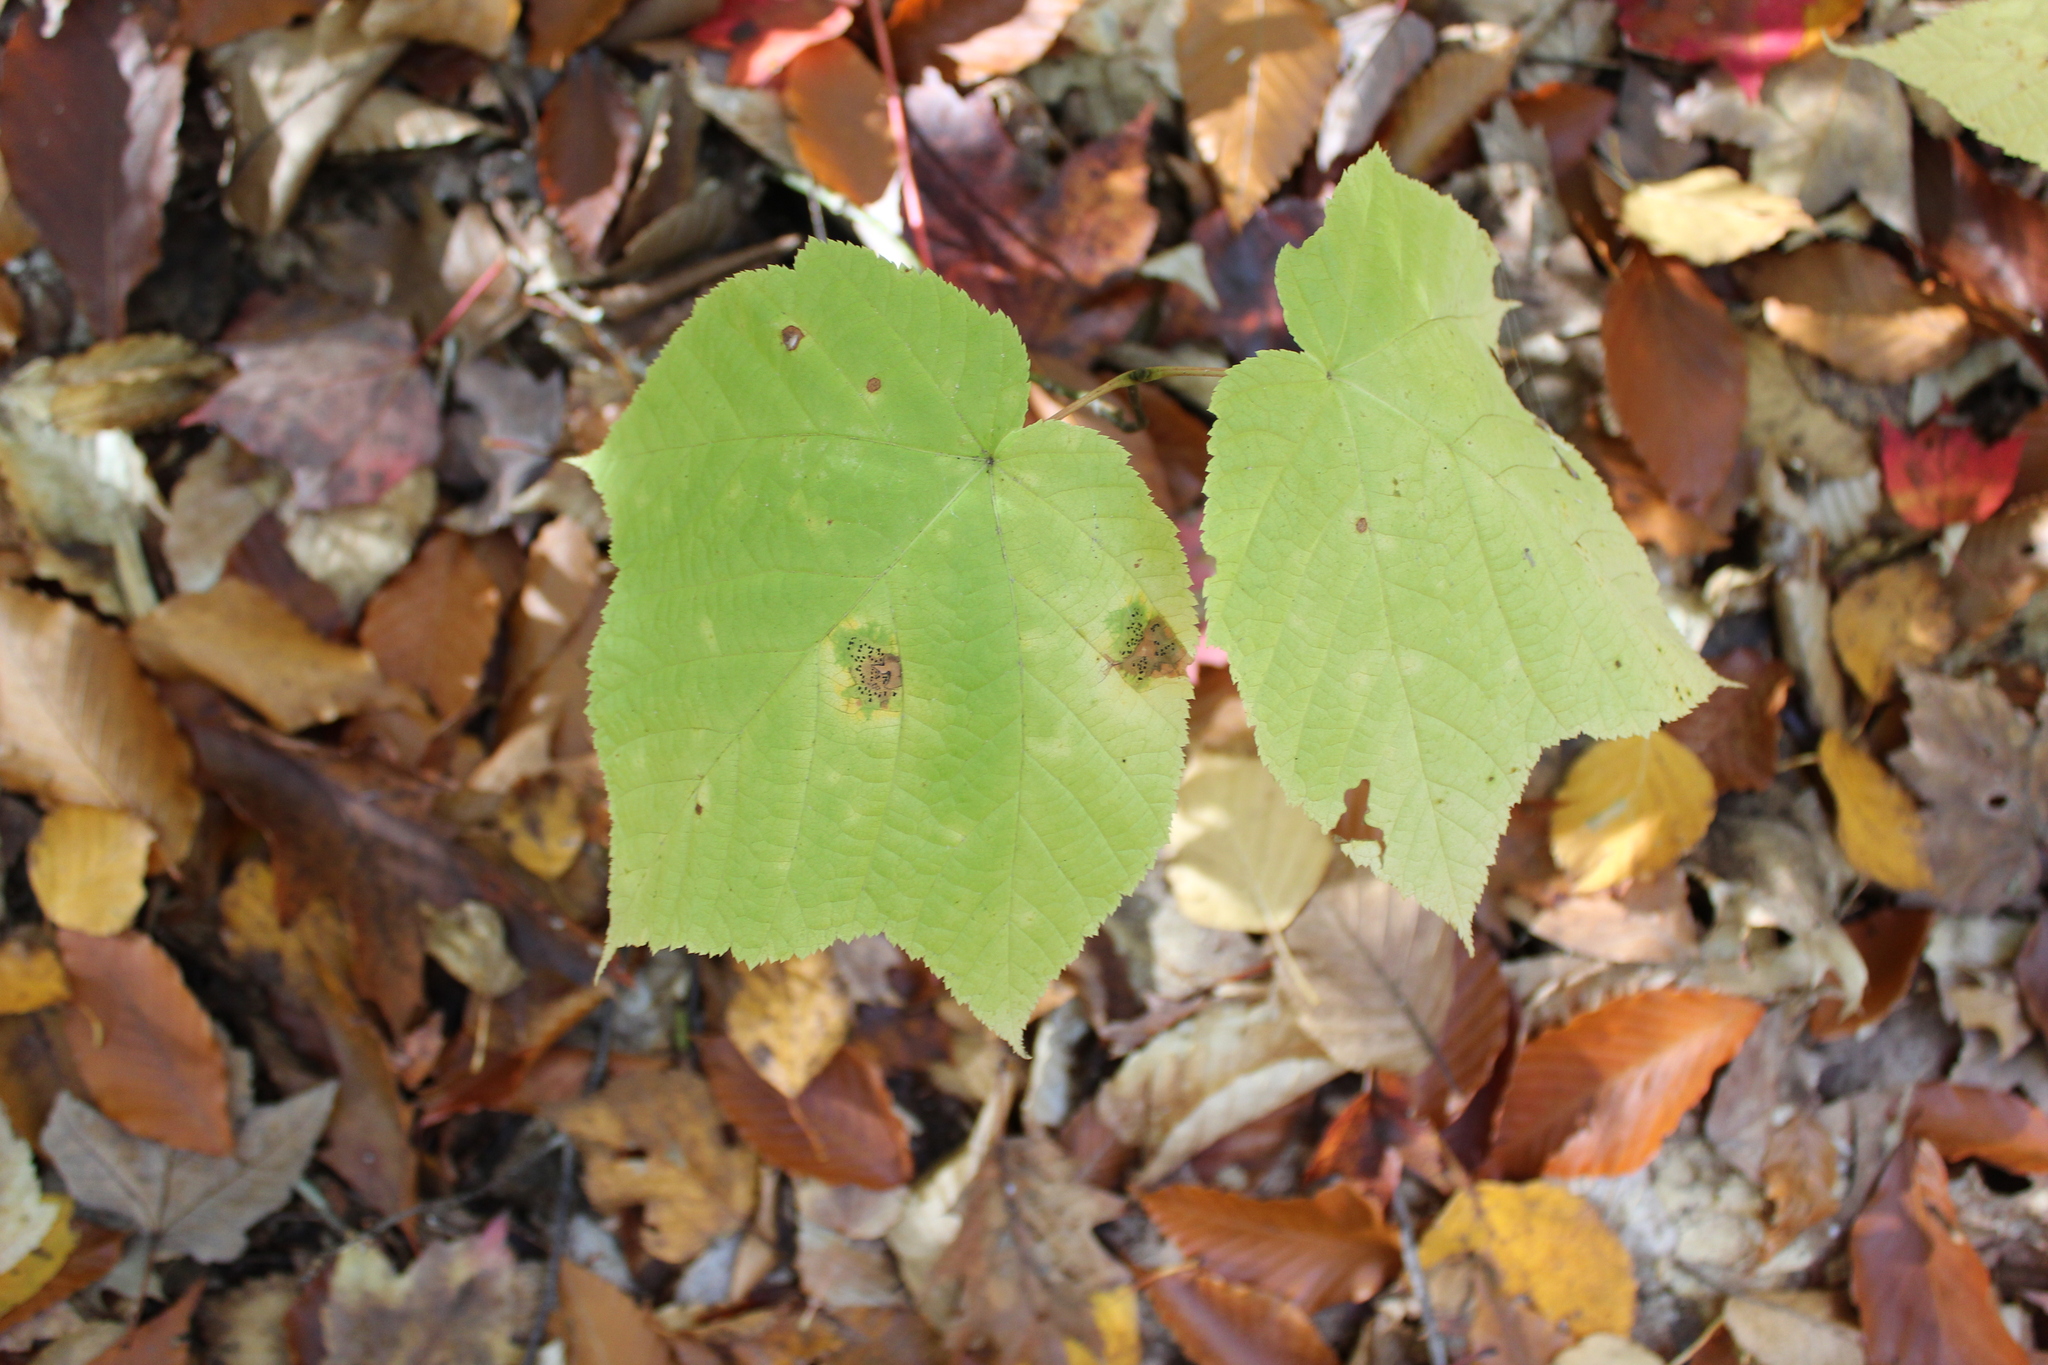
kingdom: Plantae
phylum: Tracheophyta
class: Magnoliopsida
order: Sapindales
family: Sapindaceae
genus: Acer
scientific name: Acer pensylvanicum
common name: Moosewood
